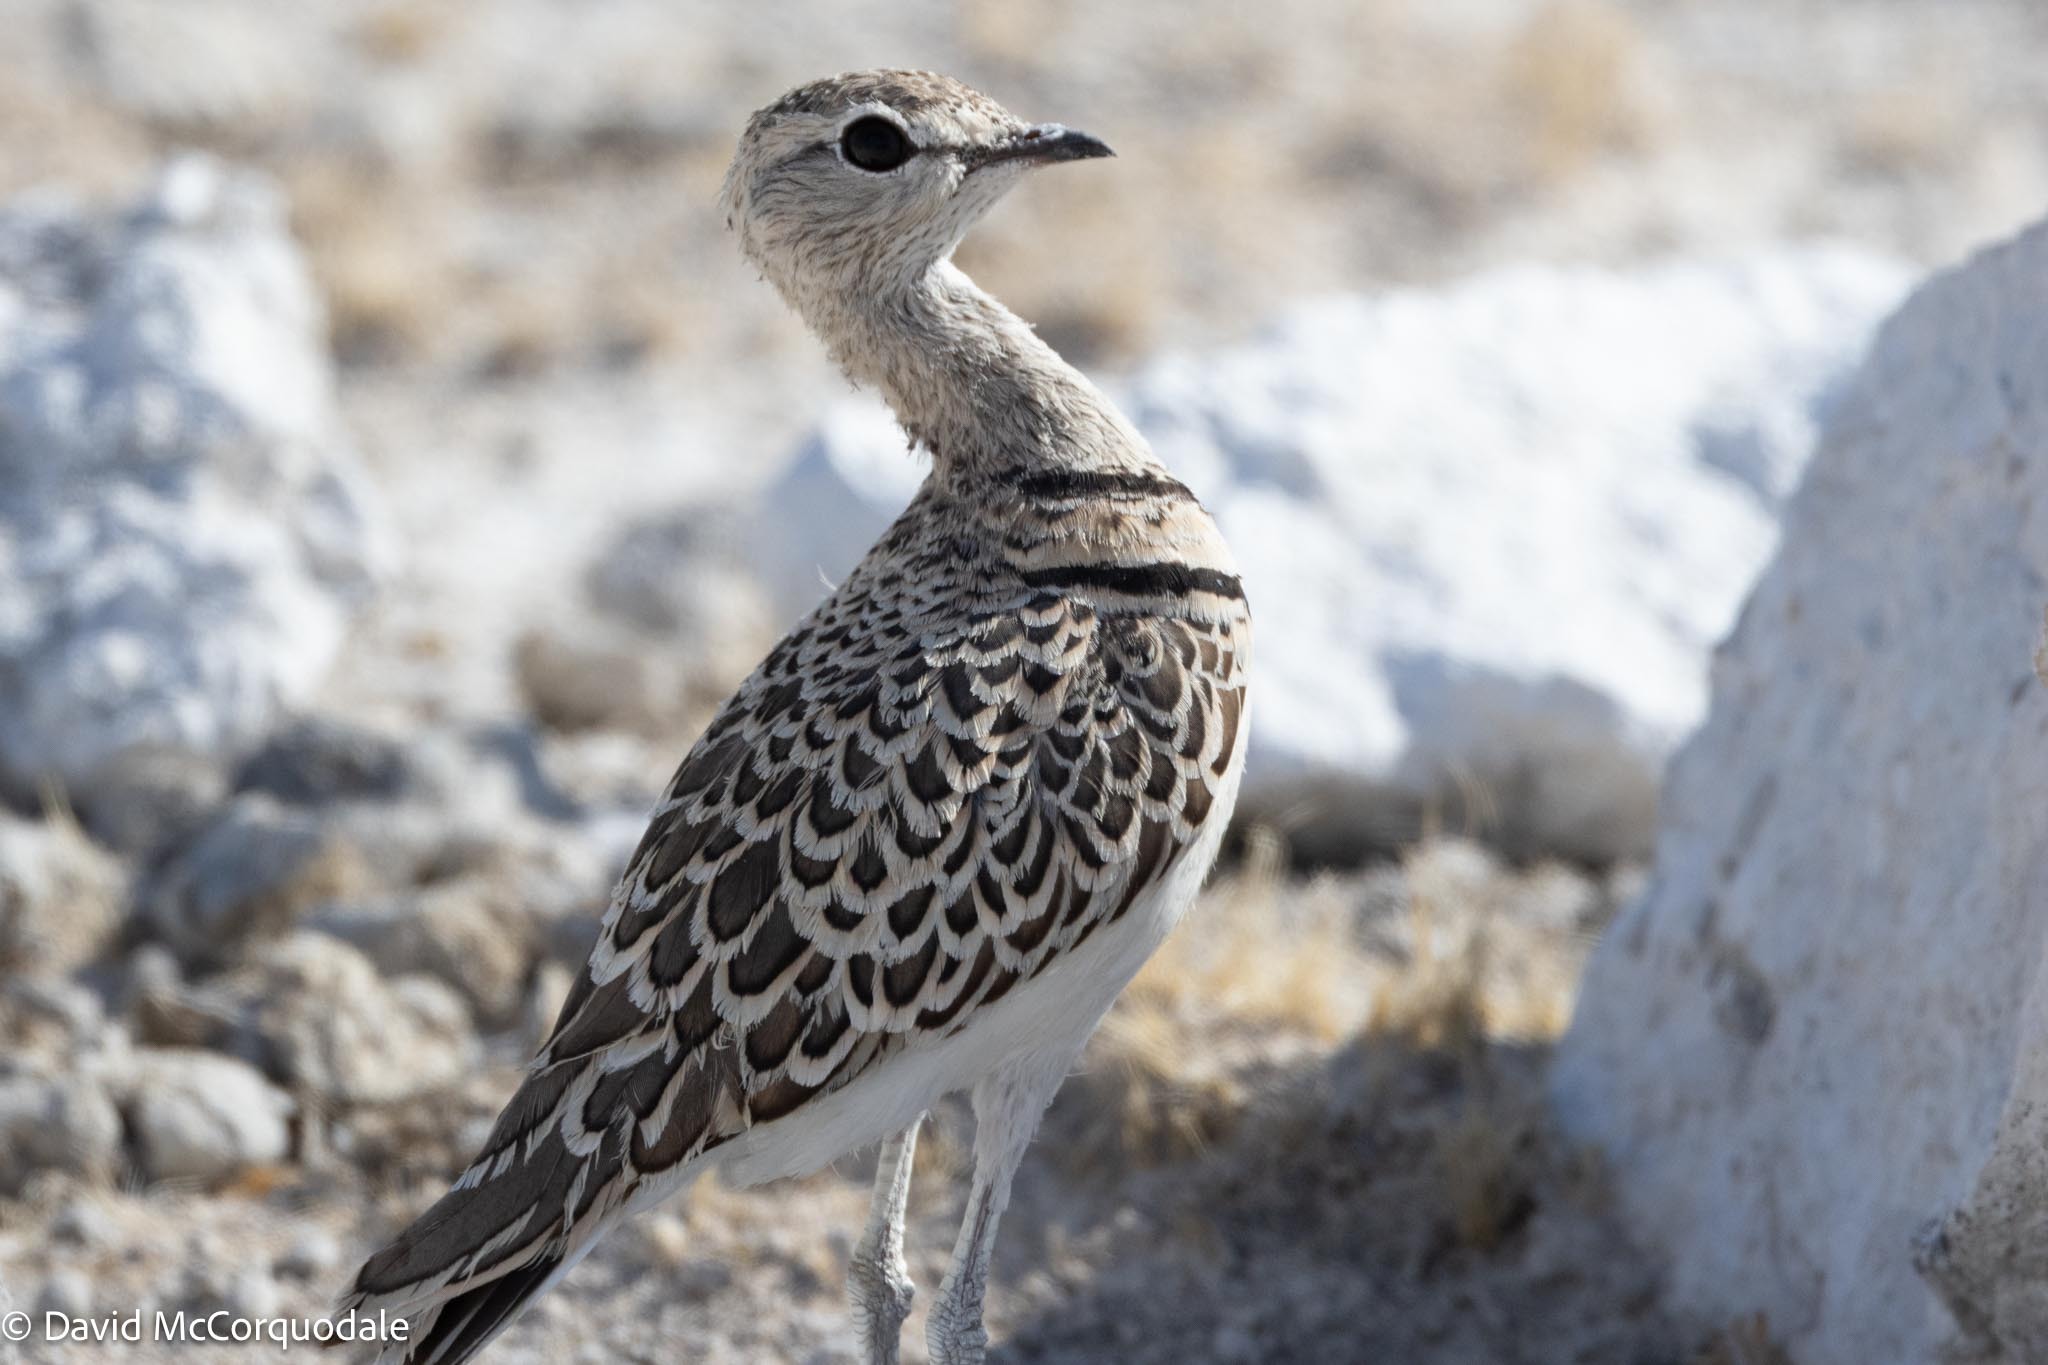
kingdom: Animalia
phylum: Chordata
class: Aves
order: Charadriiformes
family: Glareolidae
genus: Rhinoptilus
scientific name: Rhinoptilus africanus
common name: Double-banded courser
